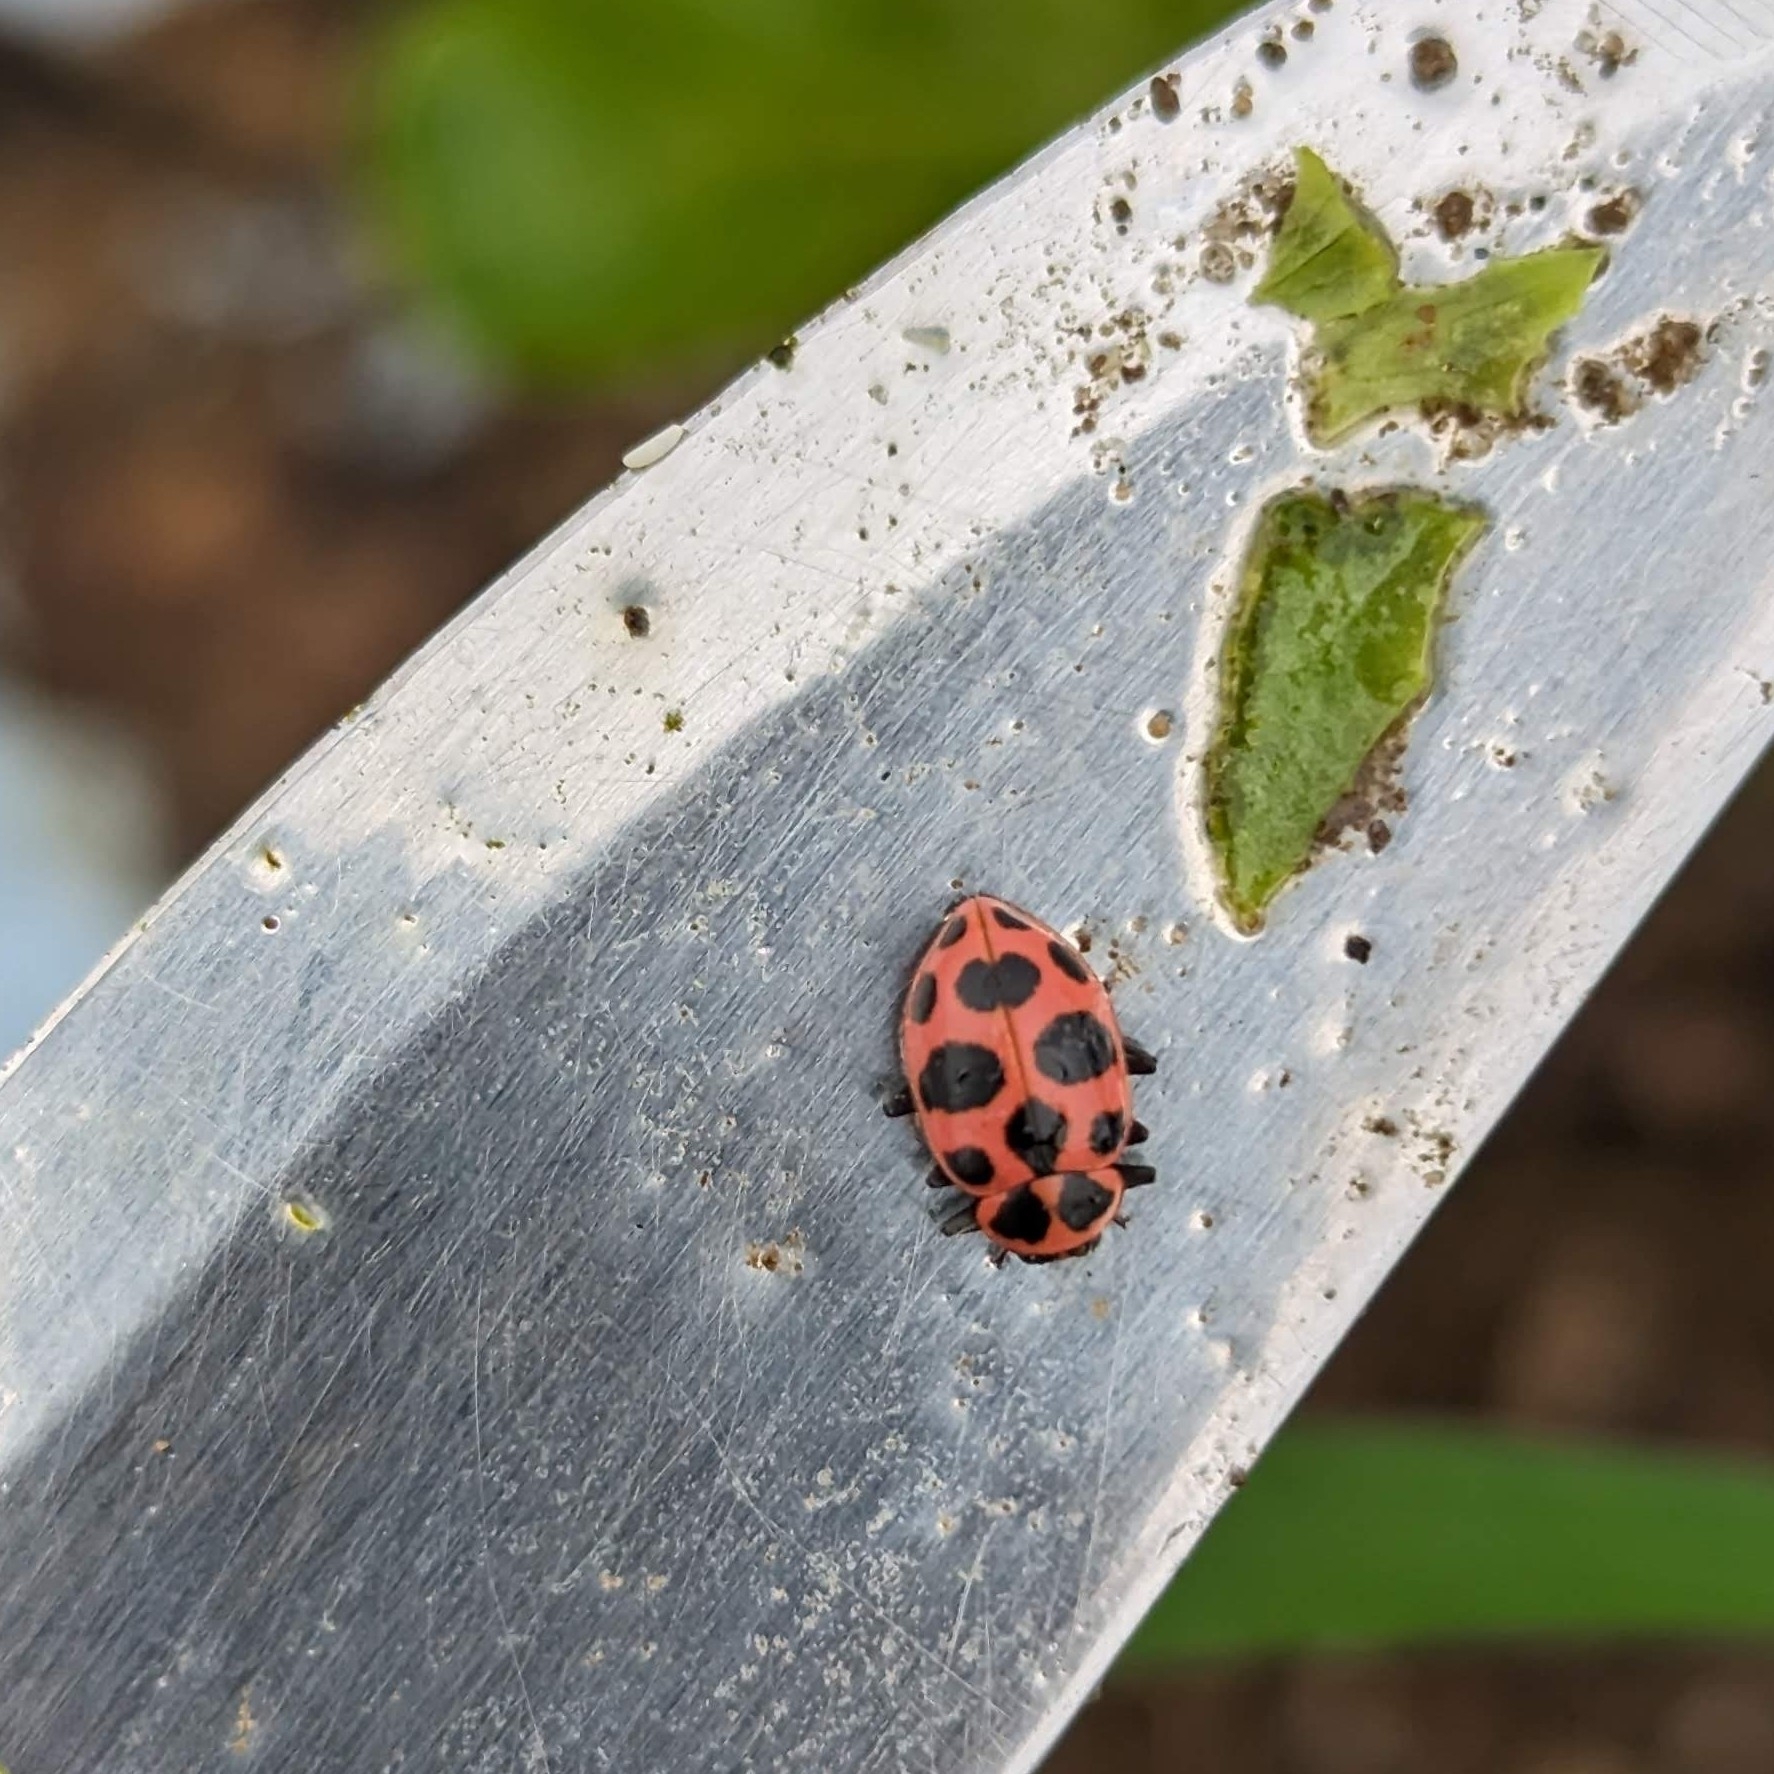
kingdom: Animalia
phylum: Arthropoda
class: Insecta
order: Coleoptera
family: Coccinellidae
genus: Coleomegilla
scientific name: Coleomegilla maculata
